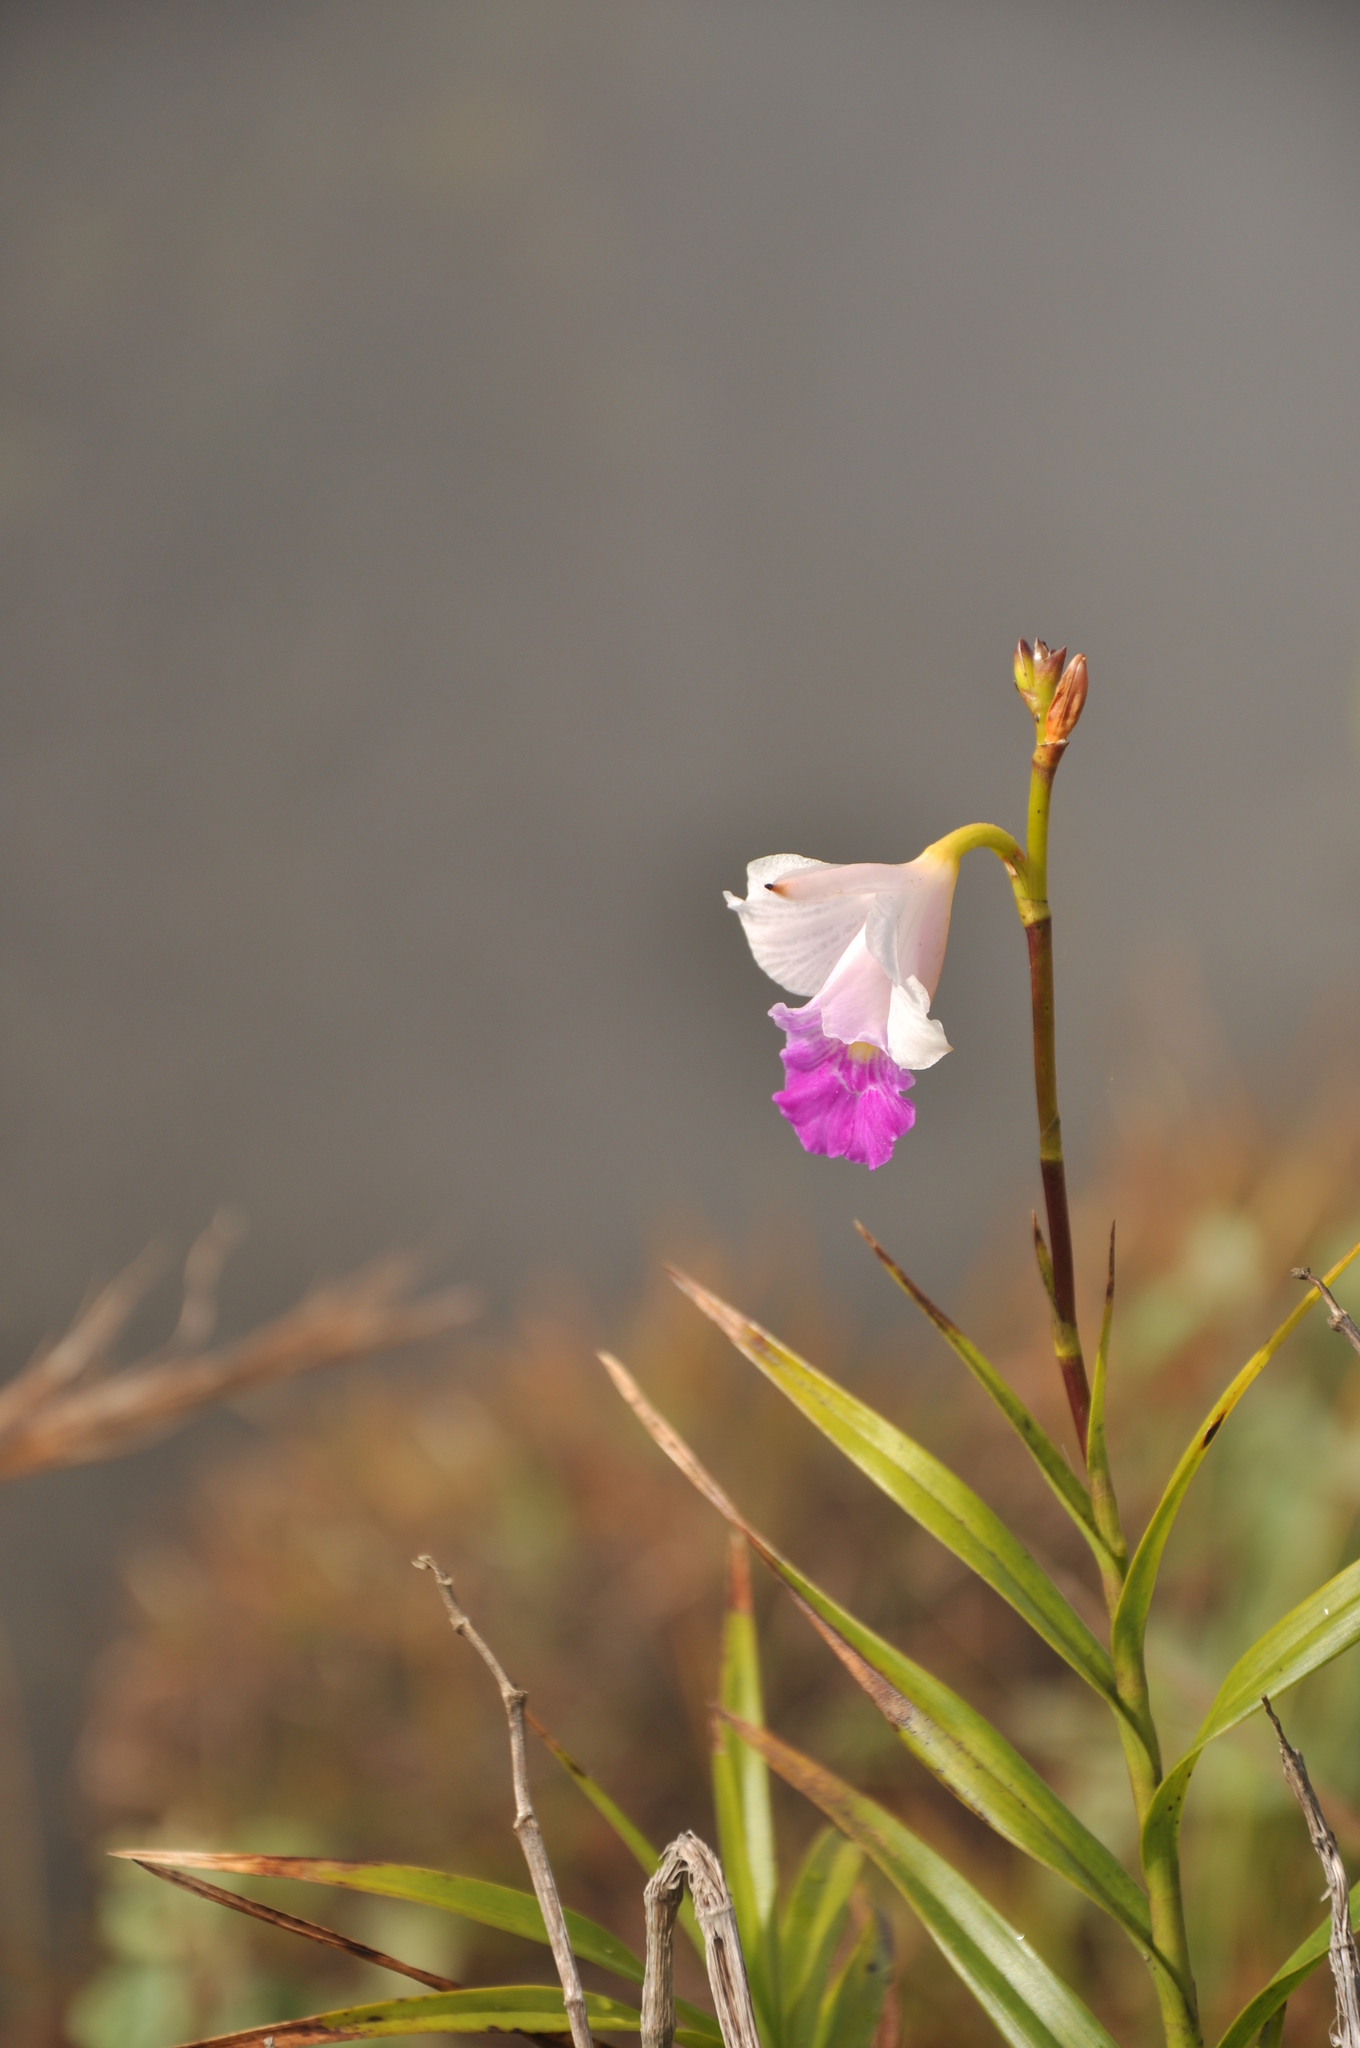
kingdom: Plantae
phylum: Tracheophyta
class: Liliopsida
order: Asparagales
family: Orchidaceae
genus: Arundina
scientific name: Arundina graminifolia
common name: Bamboo orchid
